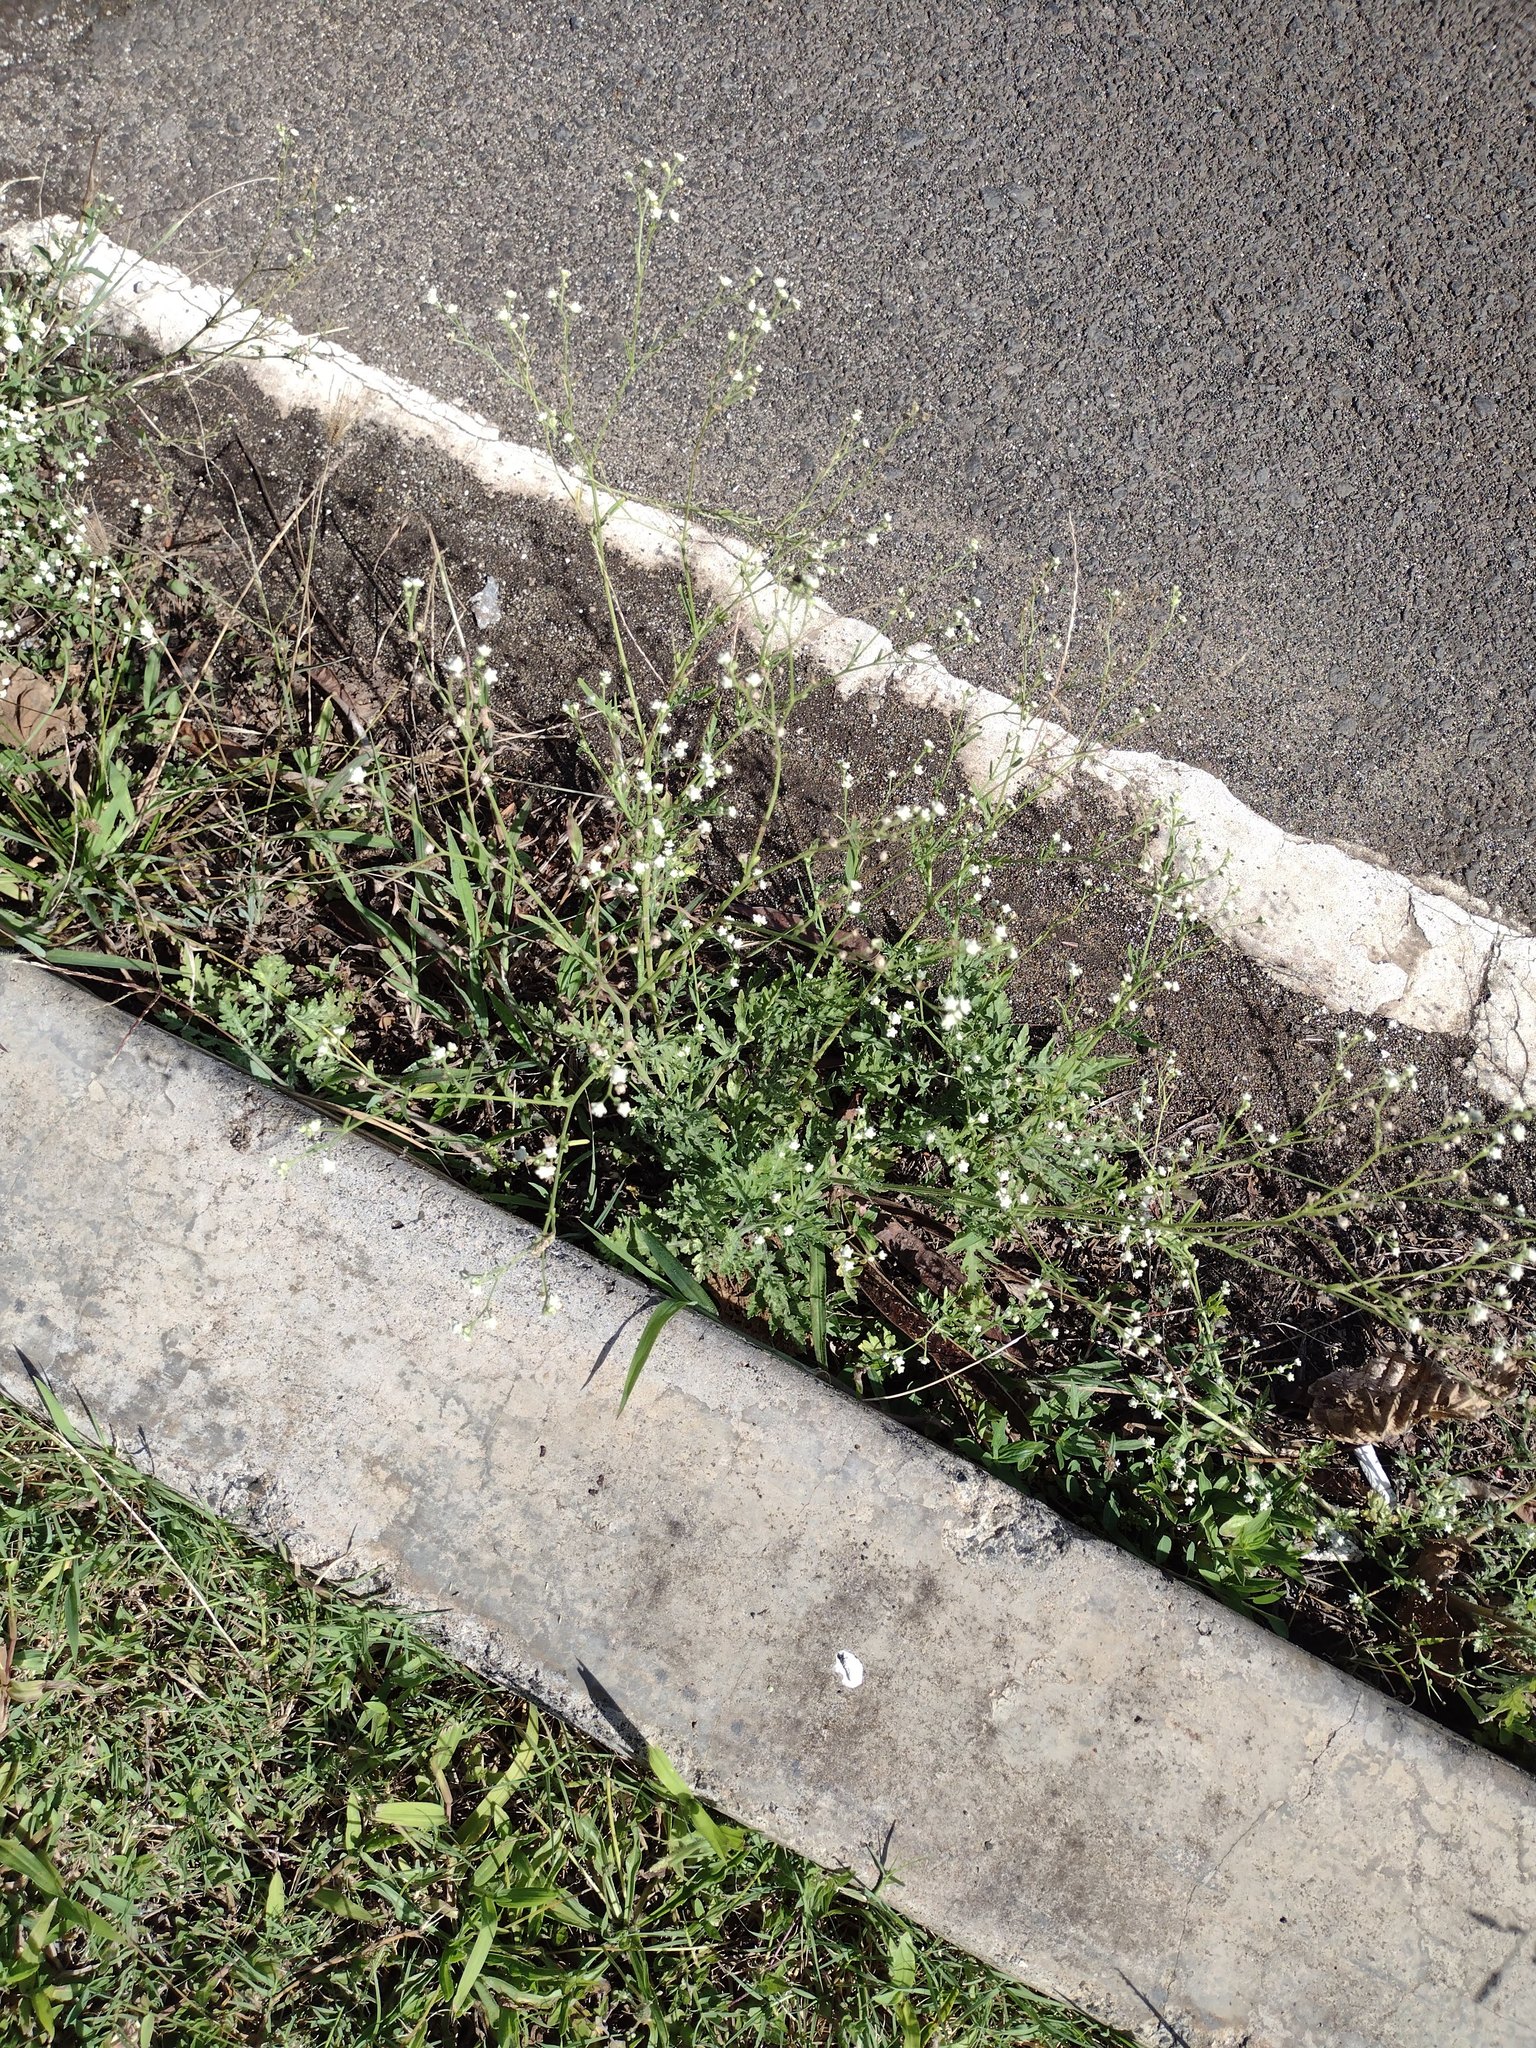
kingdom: Plantae
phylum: Tracheophyta
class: Magnoliopsida
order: Asterales
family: Asteraceae
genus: Parthenium
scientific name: Parthenium hysterophorus
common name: Santa maria feverfew
